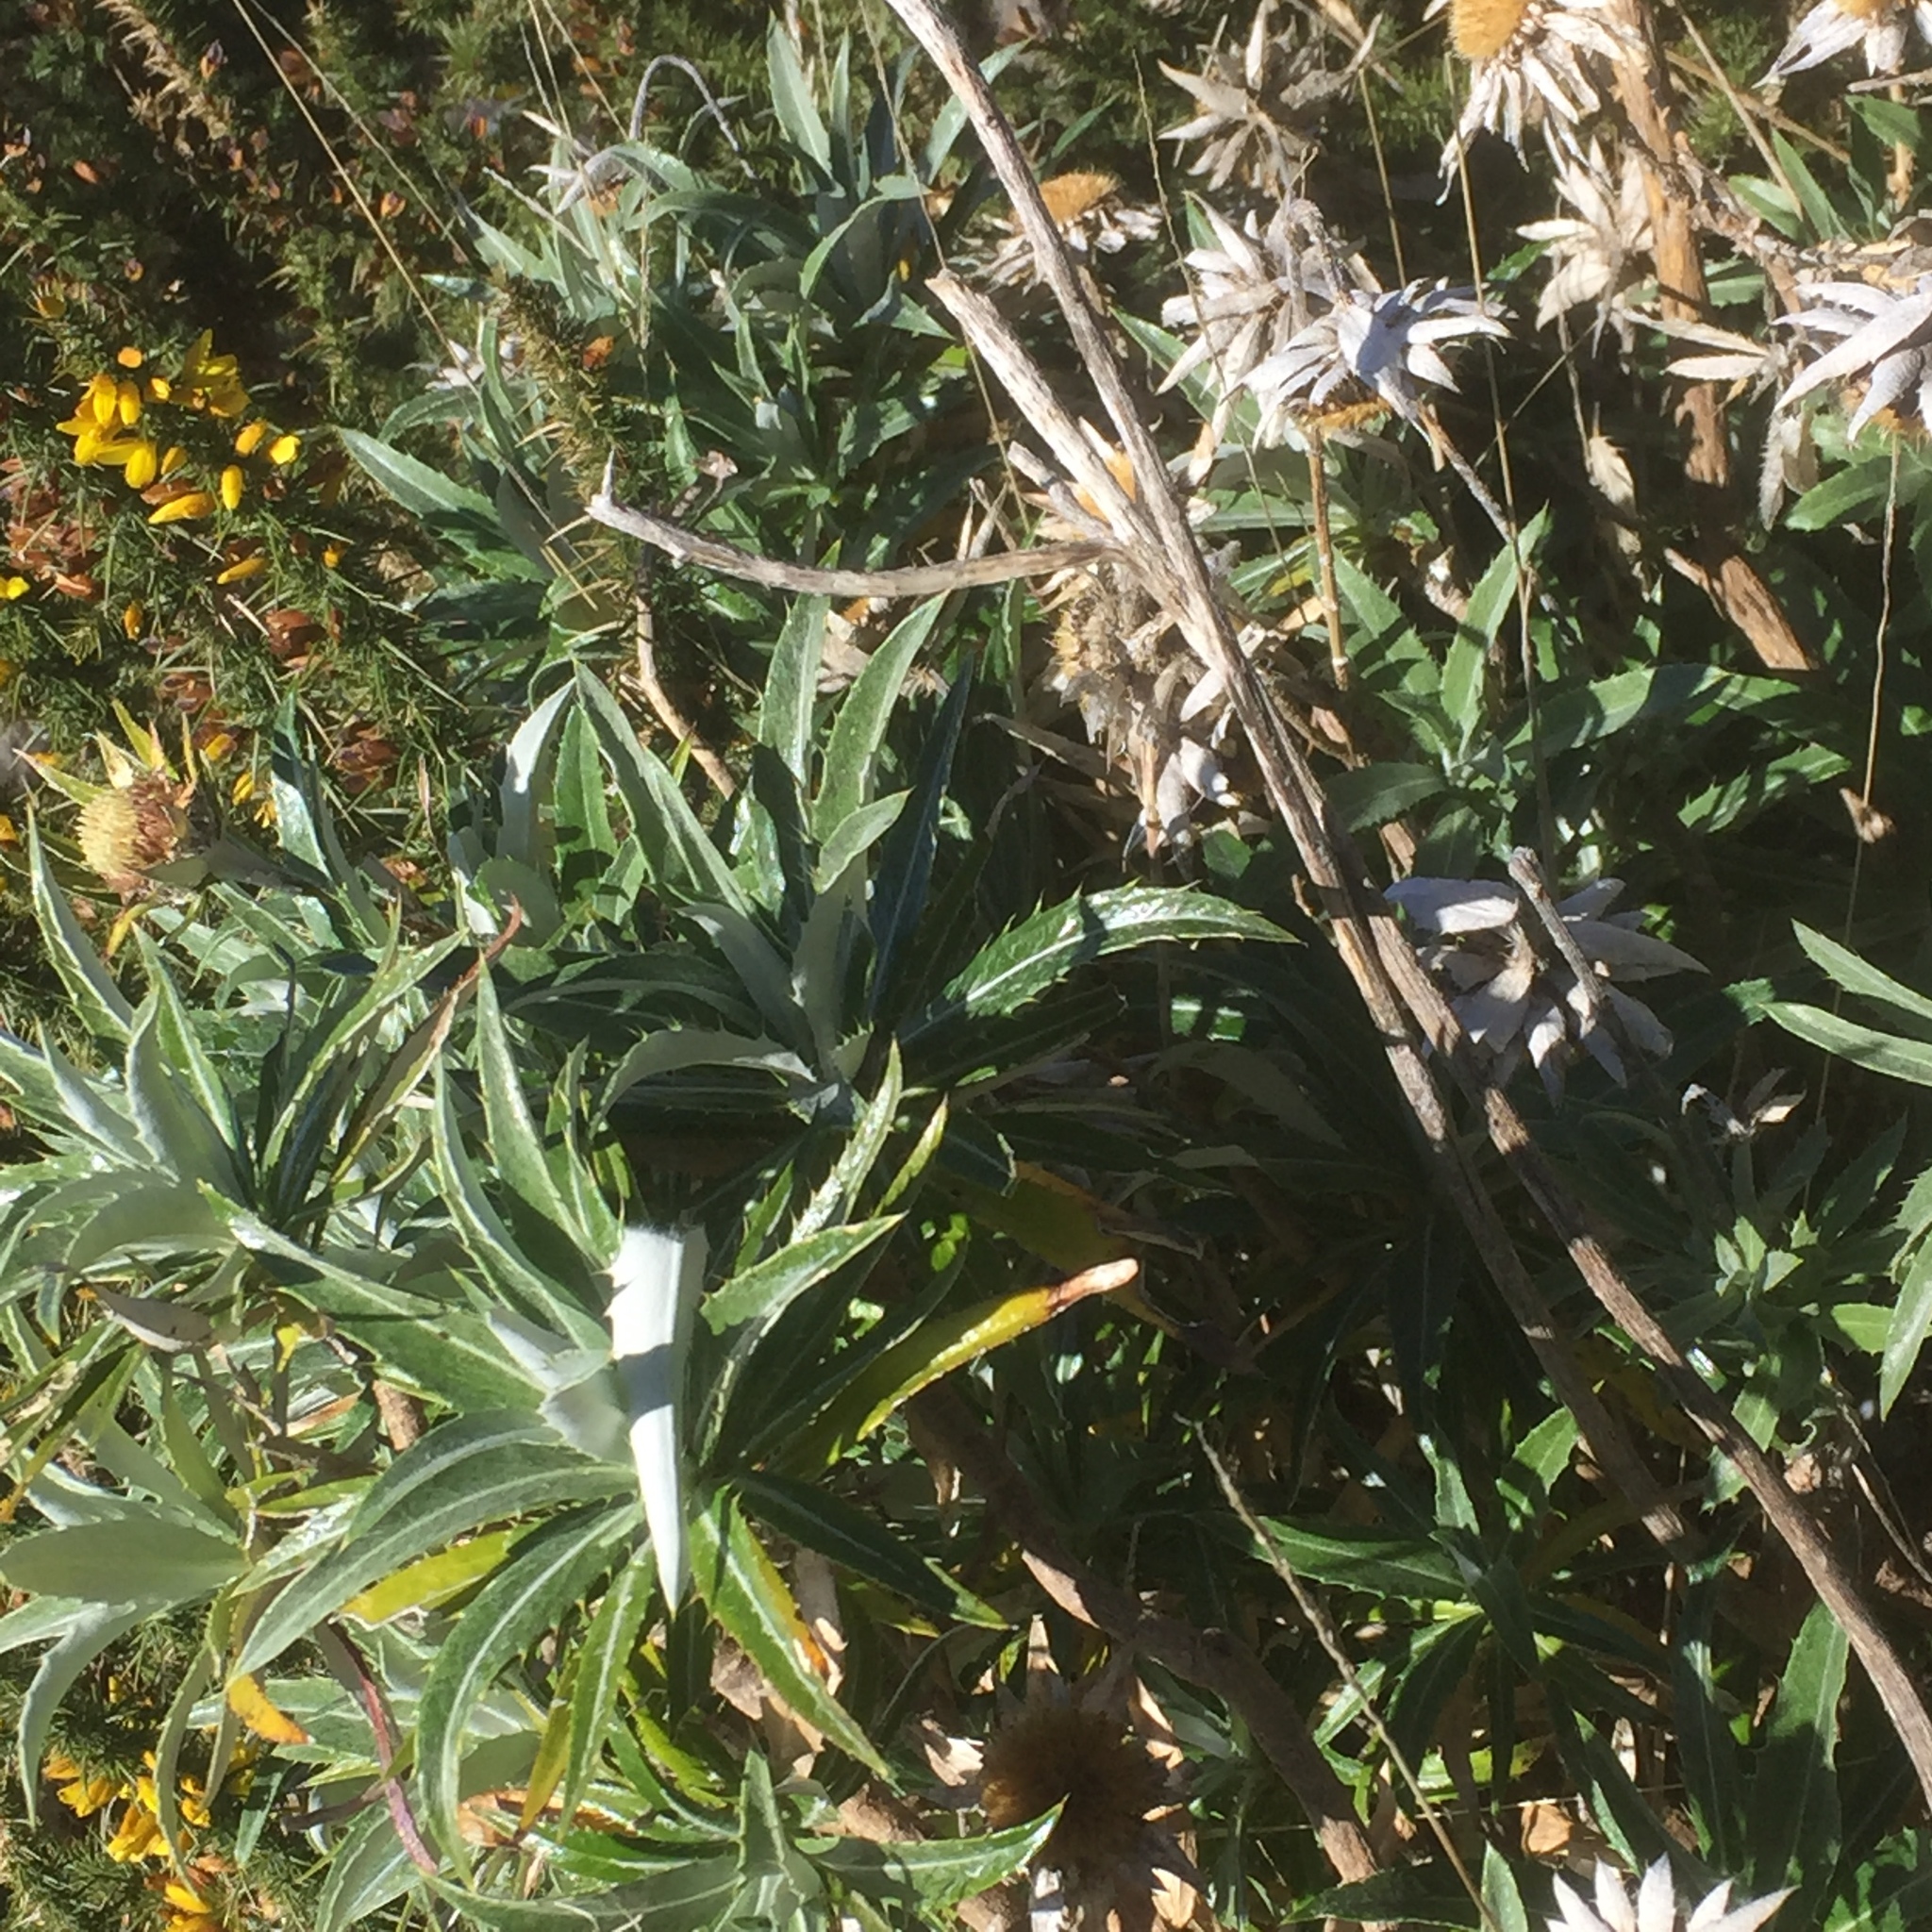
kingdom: Plantae
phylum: Tracheophyta
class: Magnoliopsida
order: Asterales
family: Asteraceae
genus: Carlina
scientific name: Carlina salicifolia
